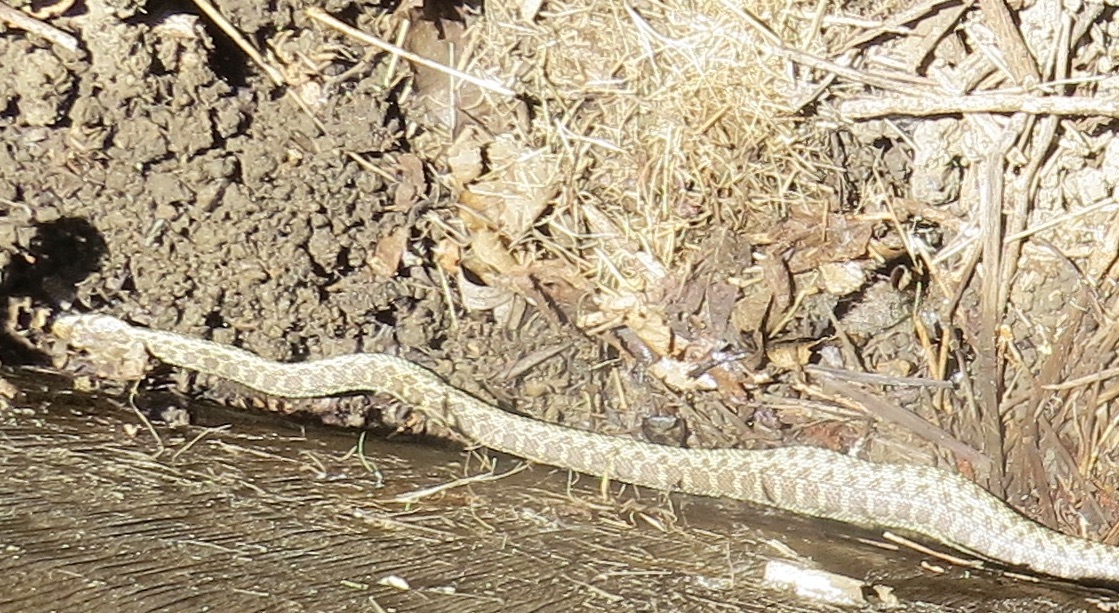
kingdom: Animalia
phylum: Chordata
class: Squamata
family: Colubridae
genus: Pituophis
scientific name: Pituophis catenifer
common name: Gopher snake
